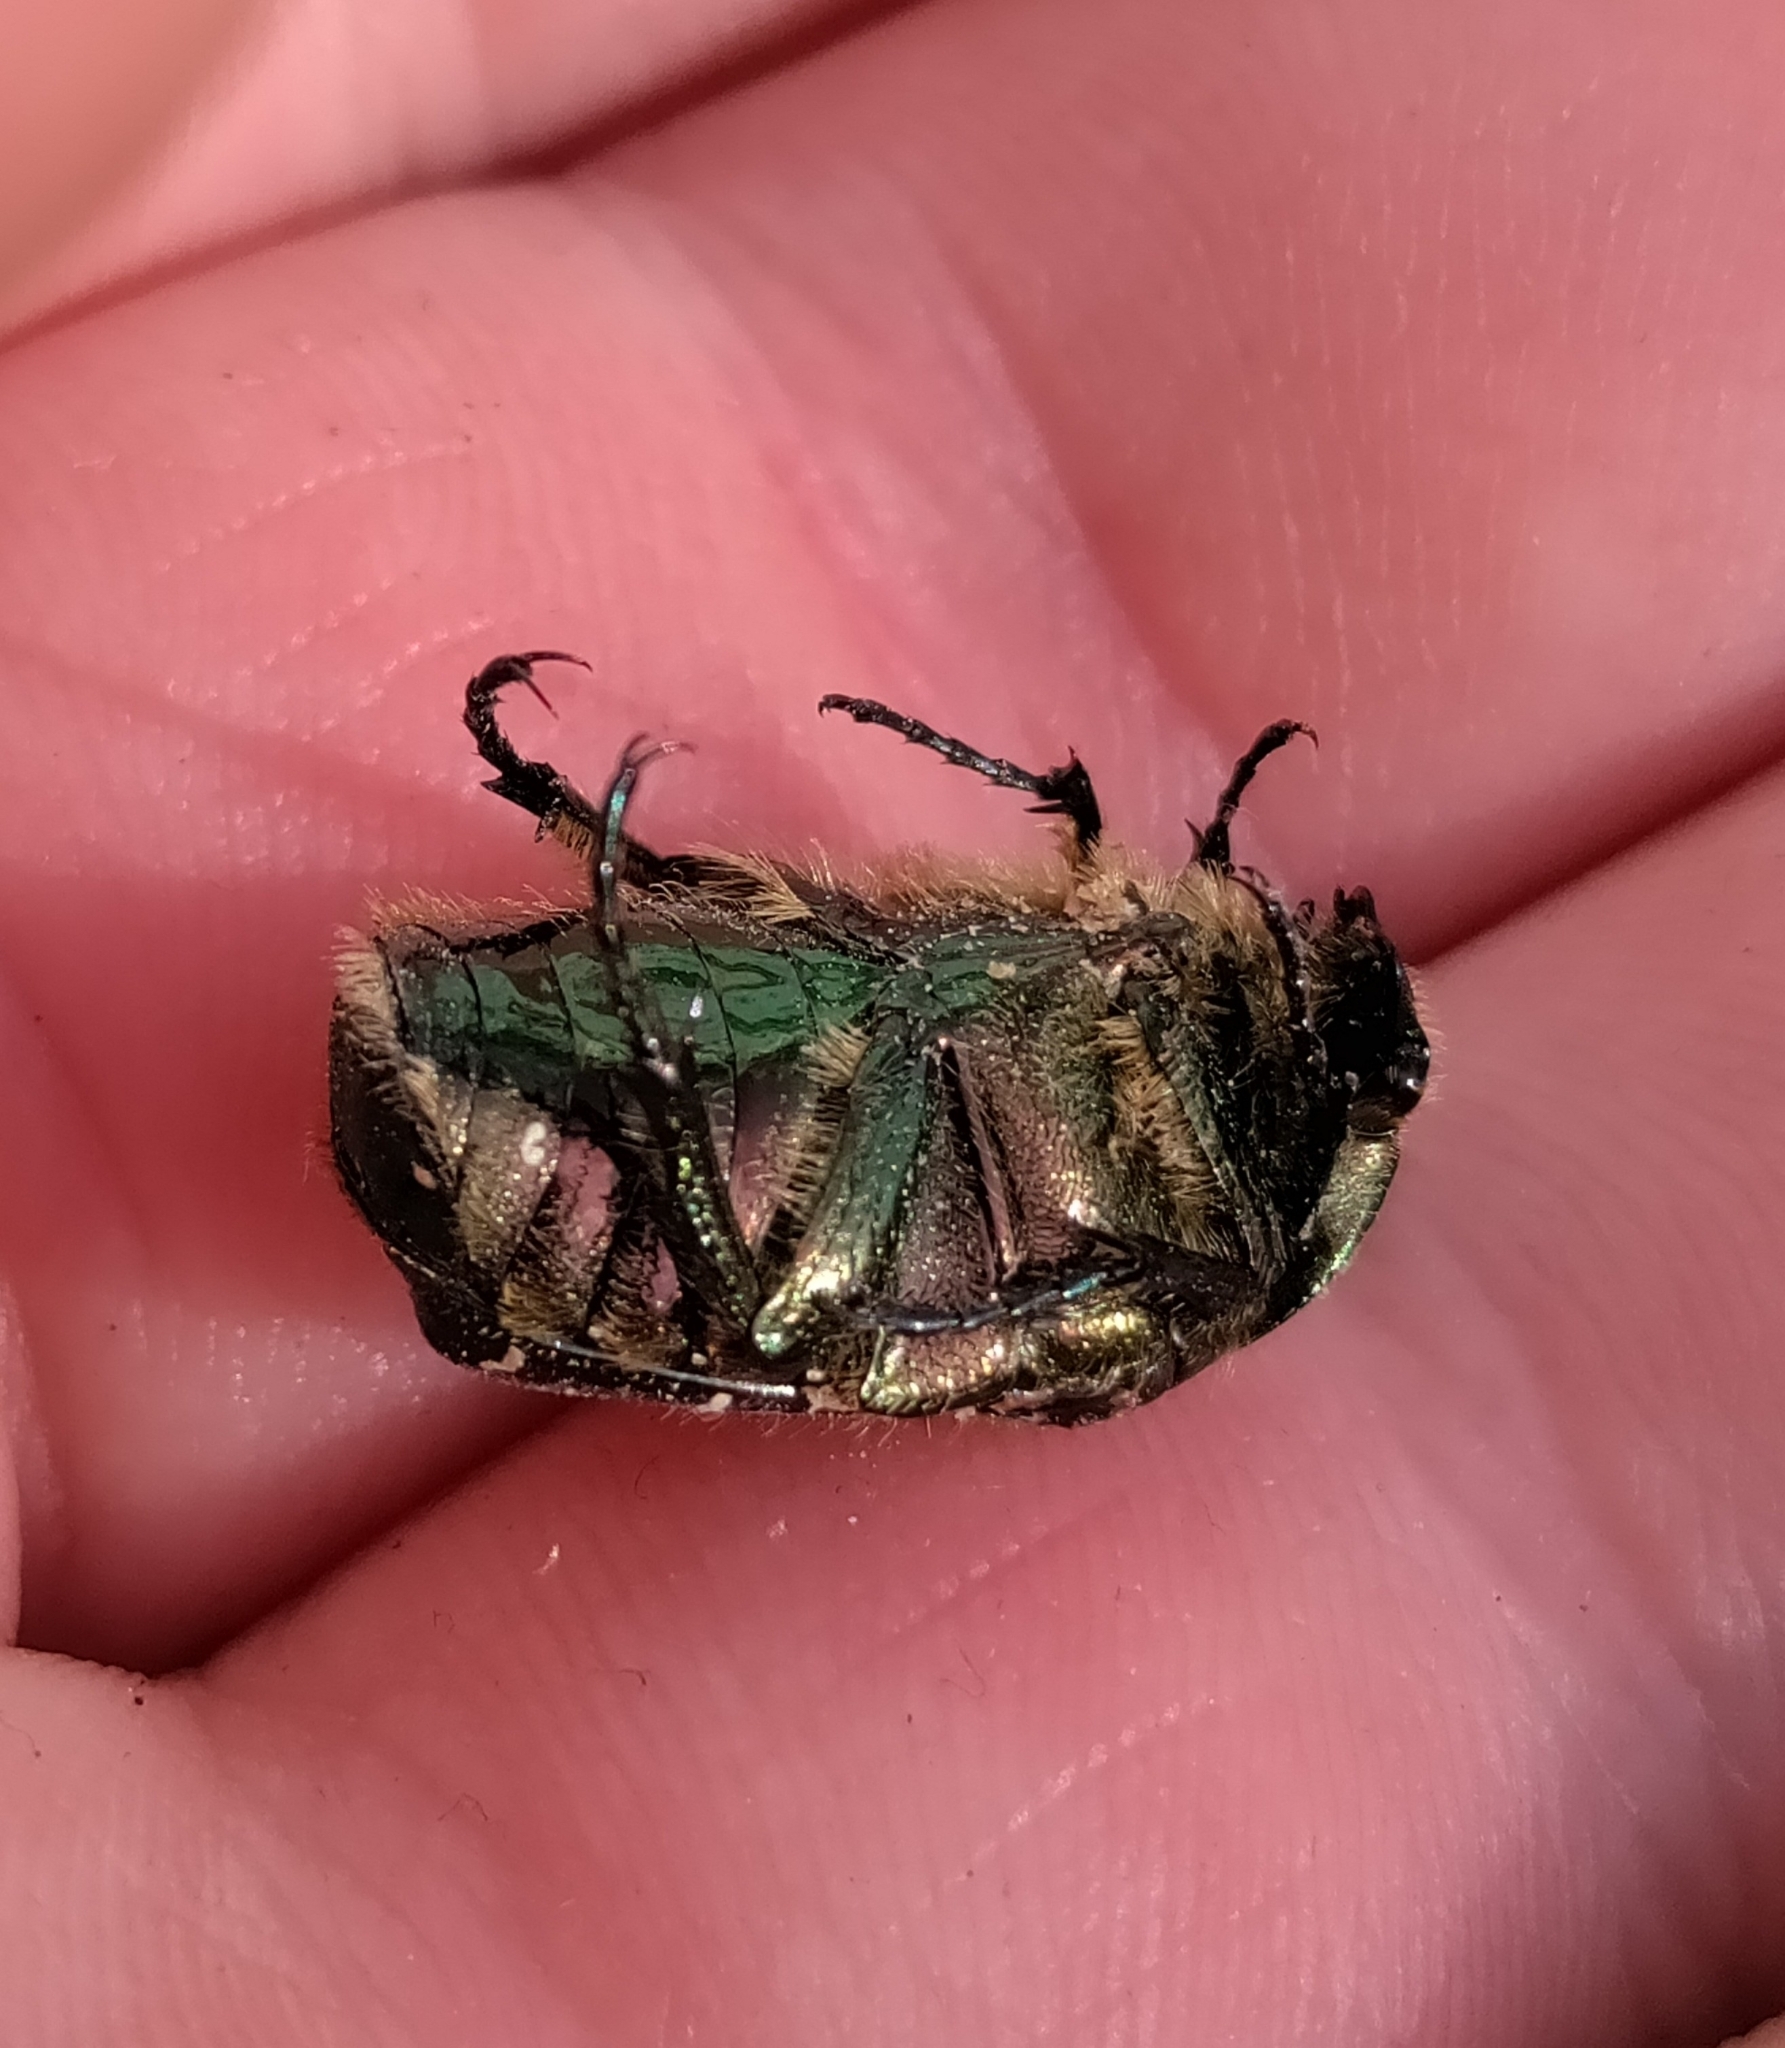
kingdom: Animalia
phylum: Arthropoda
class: Insecta
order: Coleoptera
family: Scarabaeidae
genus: Cetonia
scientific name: Cetonia aurata
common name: Rose chafer
